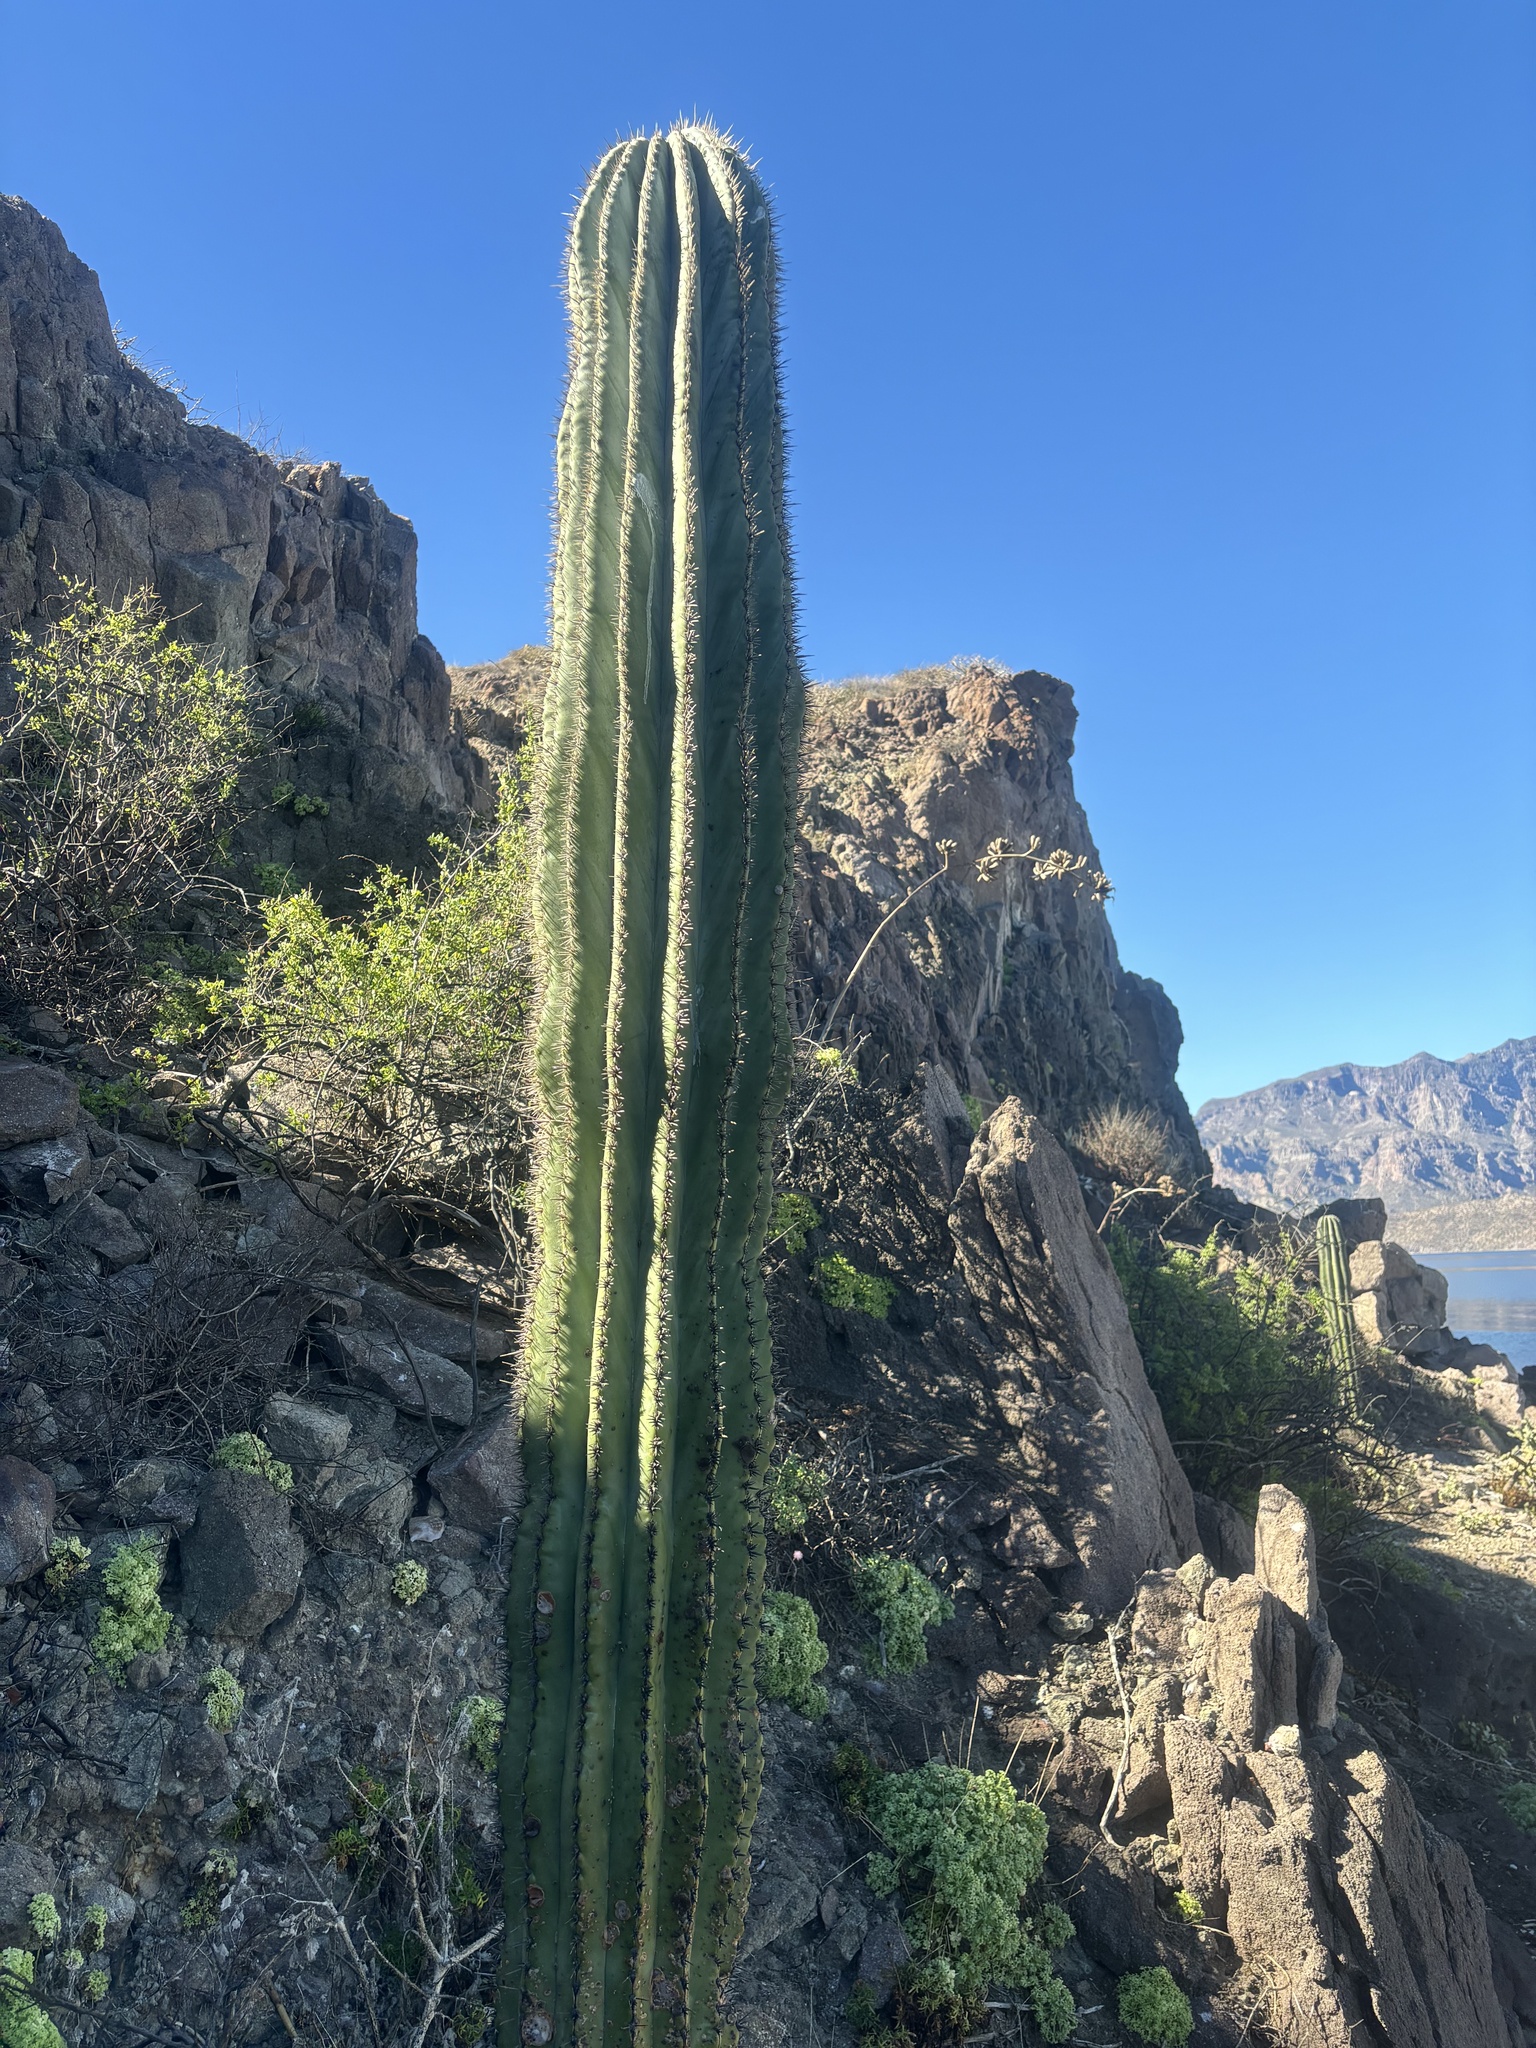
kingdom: Plantae
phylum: Tracheophyta
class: Magnoliopsida
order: Caryophyllales
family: Cactaceae
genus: Pachycereus
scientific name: Pachycereus pringlei
